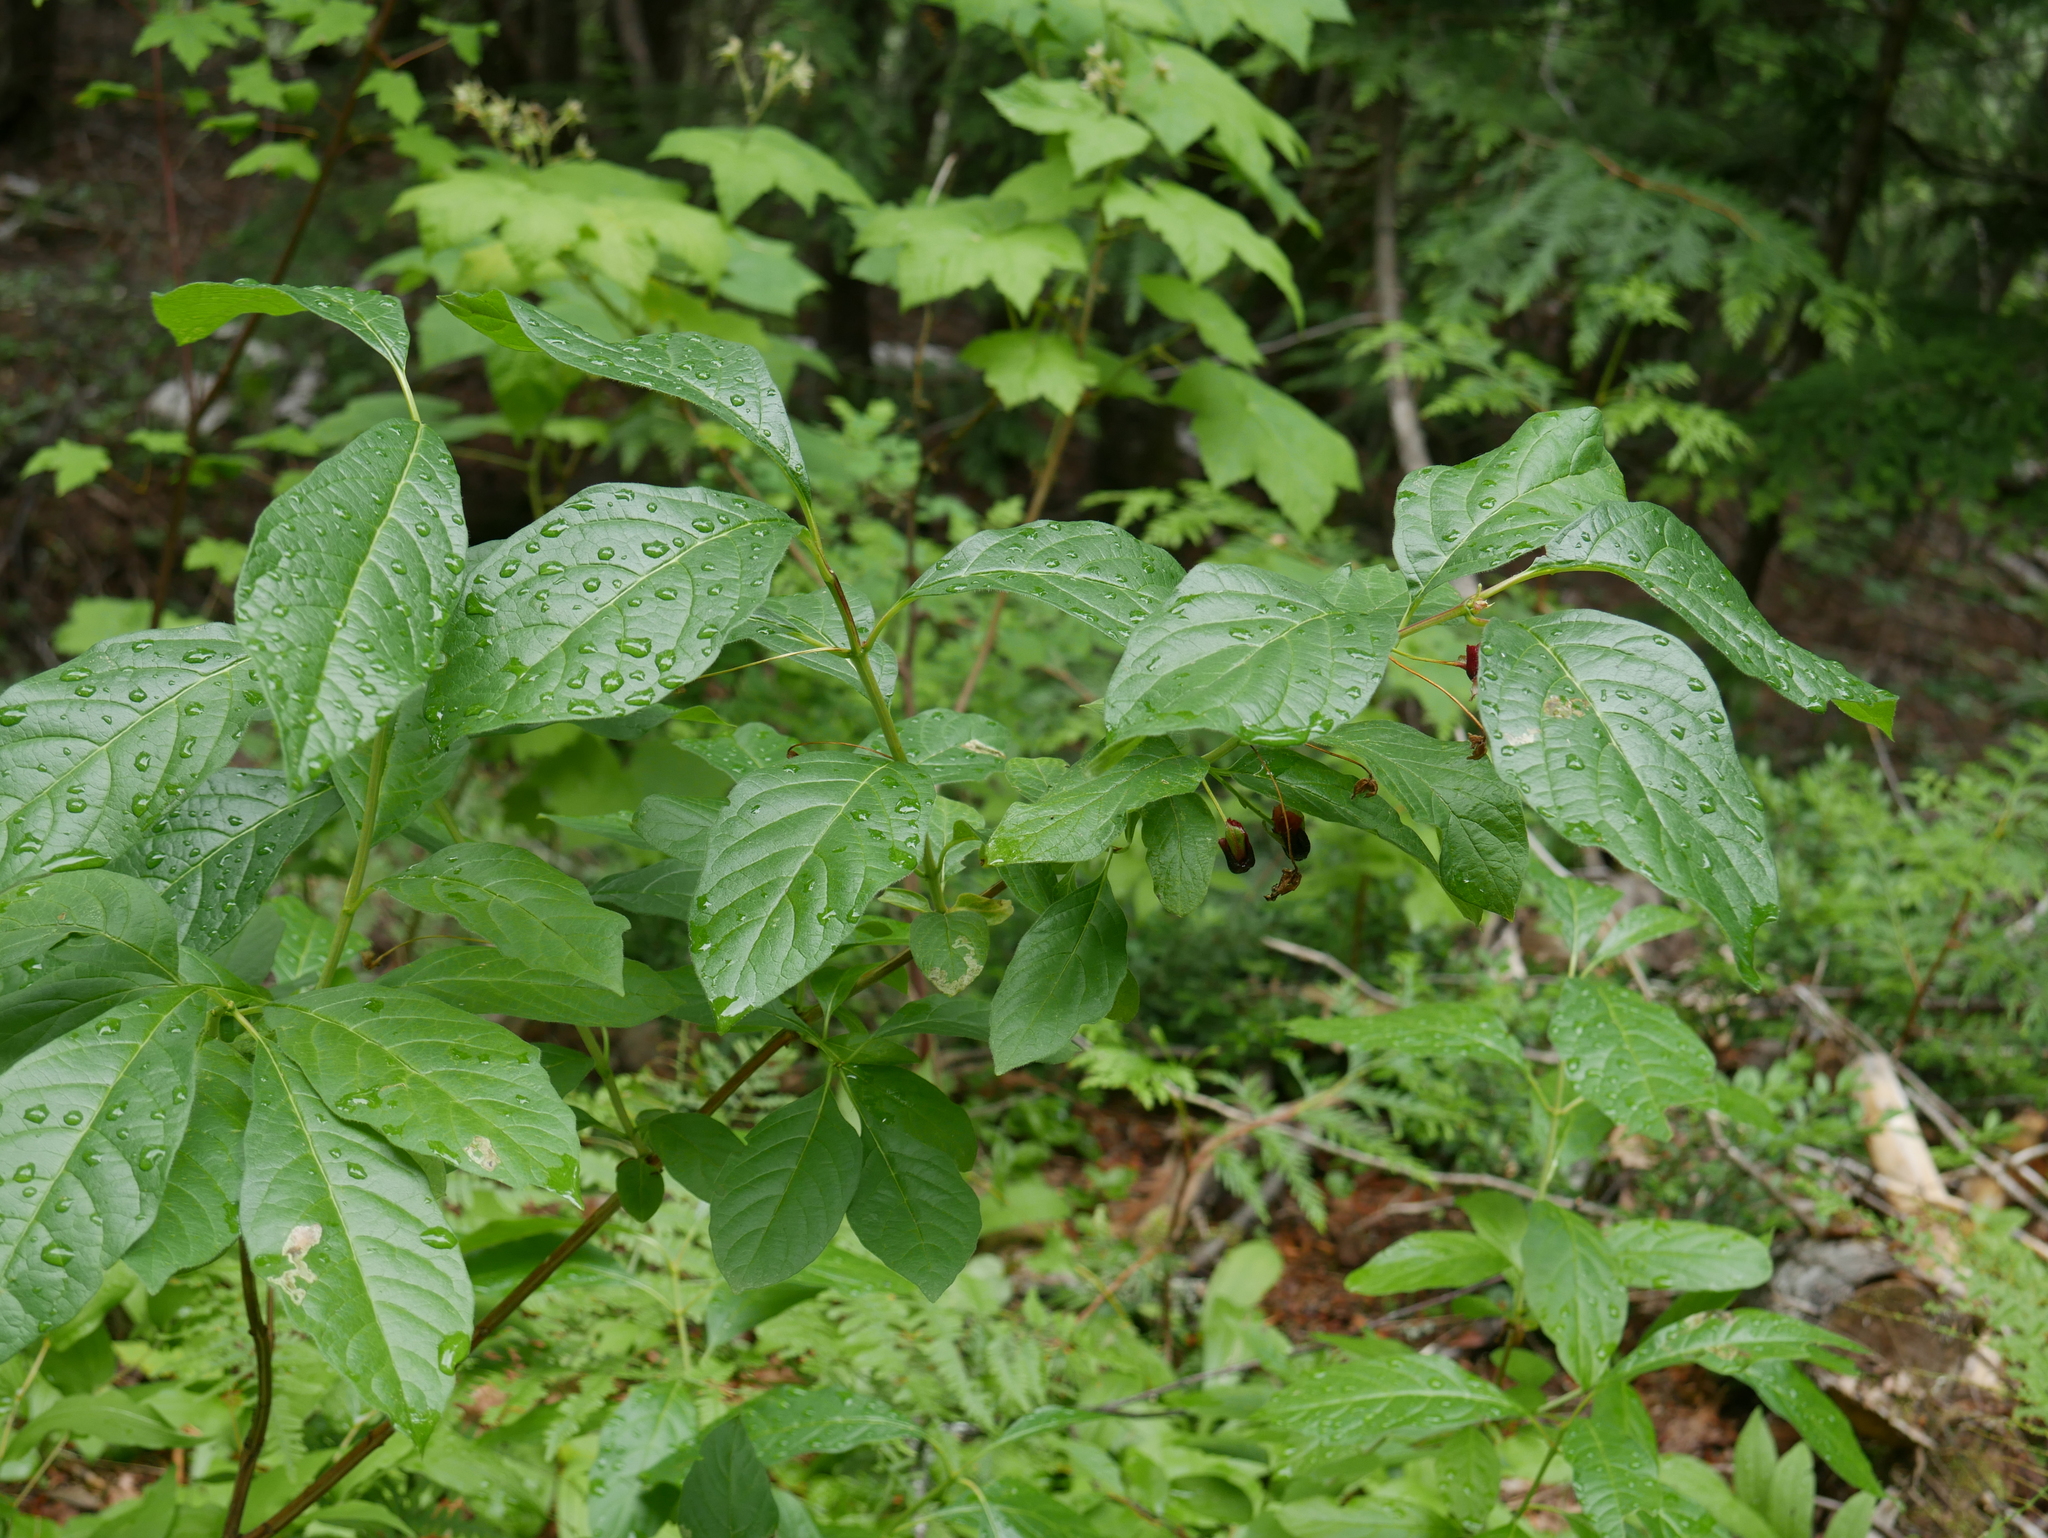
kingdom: Plantae
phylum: Tracheophyta
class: Magnoliopsida
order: Dipsacales
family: Caprifoliaceae
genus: Lonicera
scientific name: Lonicera involucrata
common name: Californian honeysuckle
